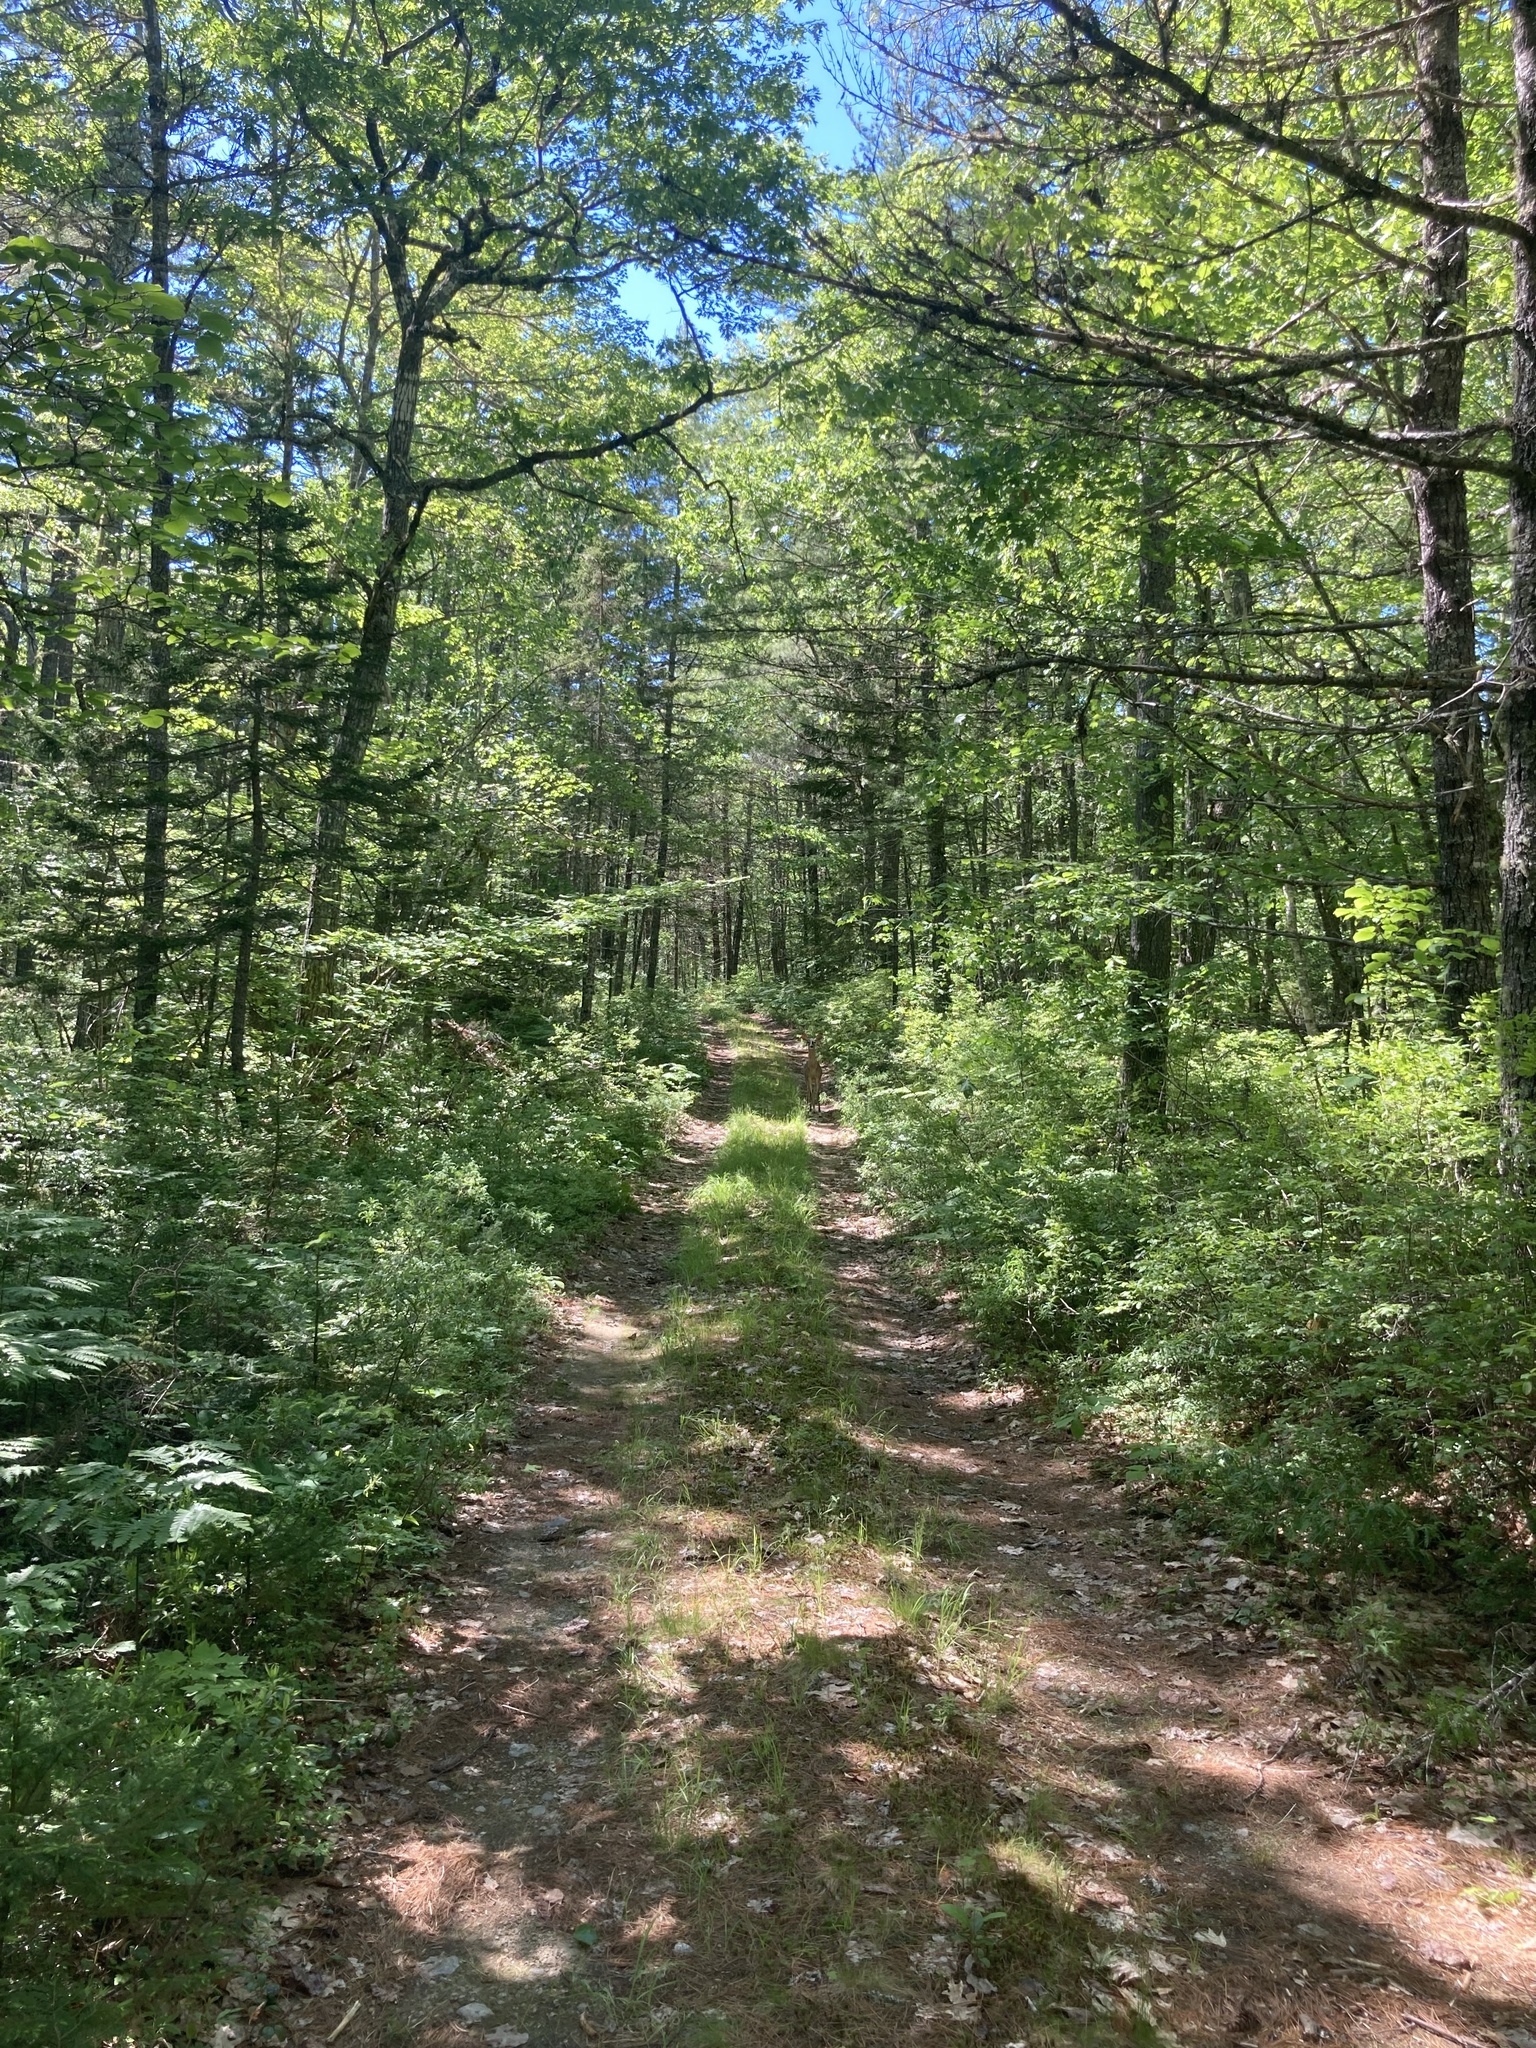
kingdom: Animalia
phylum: Chordata
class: Mammalia
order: Artiodactyla
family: Cervidae
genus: Odocoileus
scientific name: Odocoileus virginianus
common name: White-tailed deer
